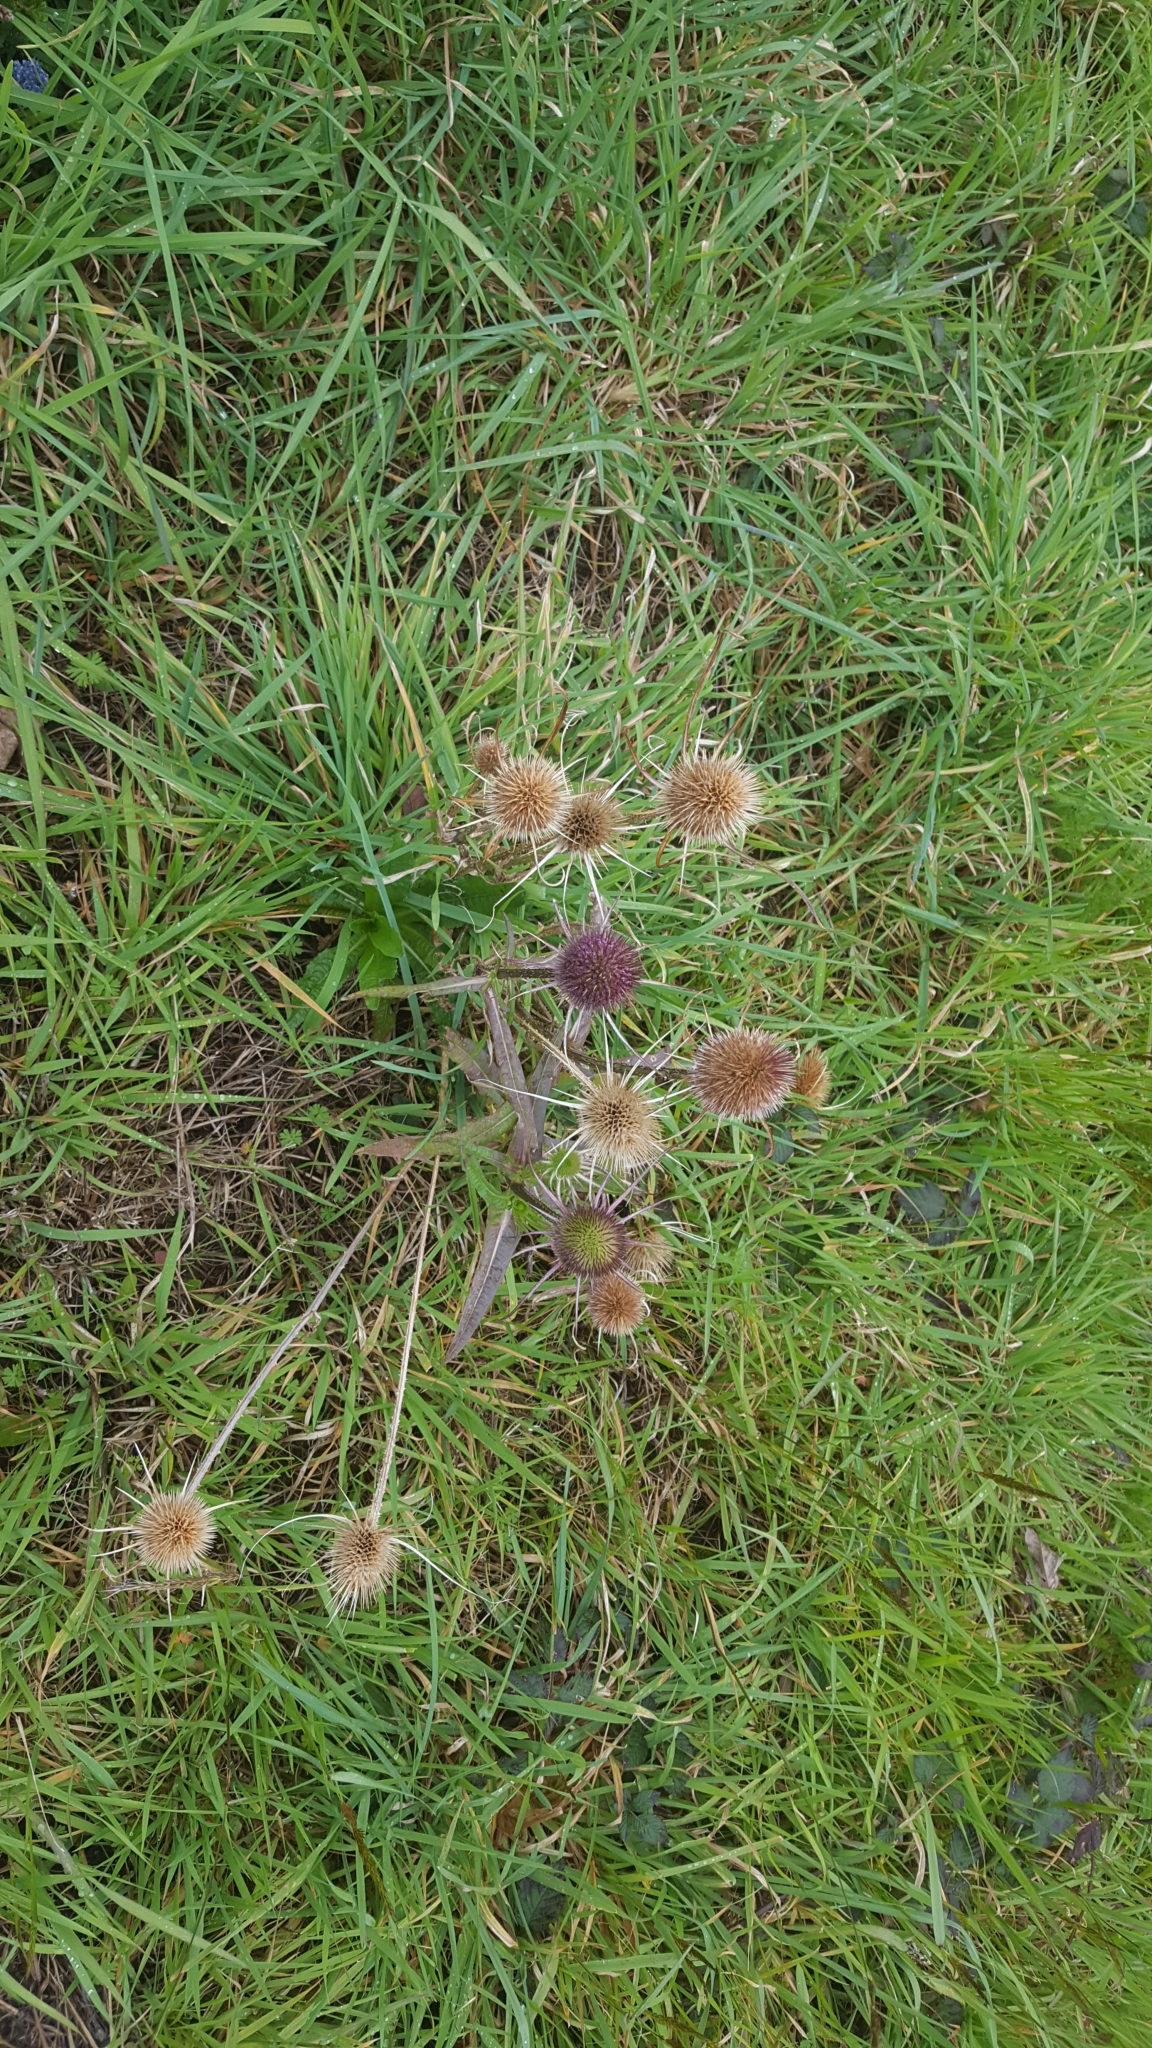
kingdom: Plantae
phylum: Tracheophyta
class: Magnoliopsida
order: Dipsacales
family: Caprifoliaceae
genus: Dipsacus
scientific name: Dipsacus fullonum
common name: Teasel
